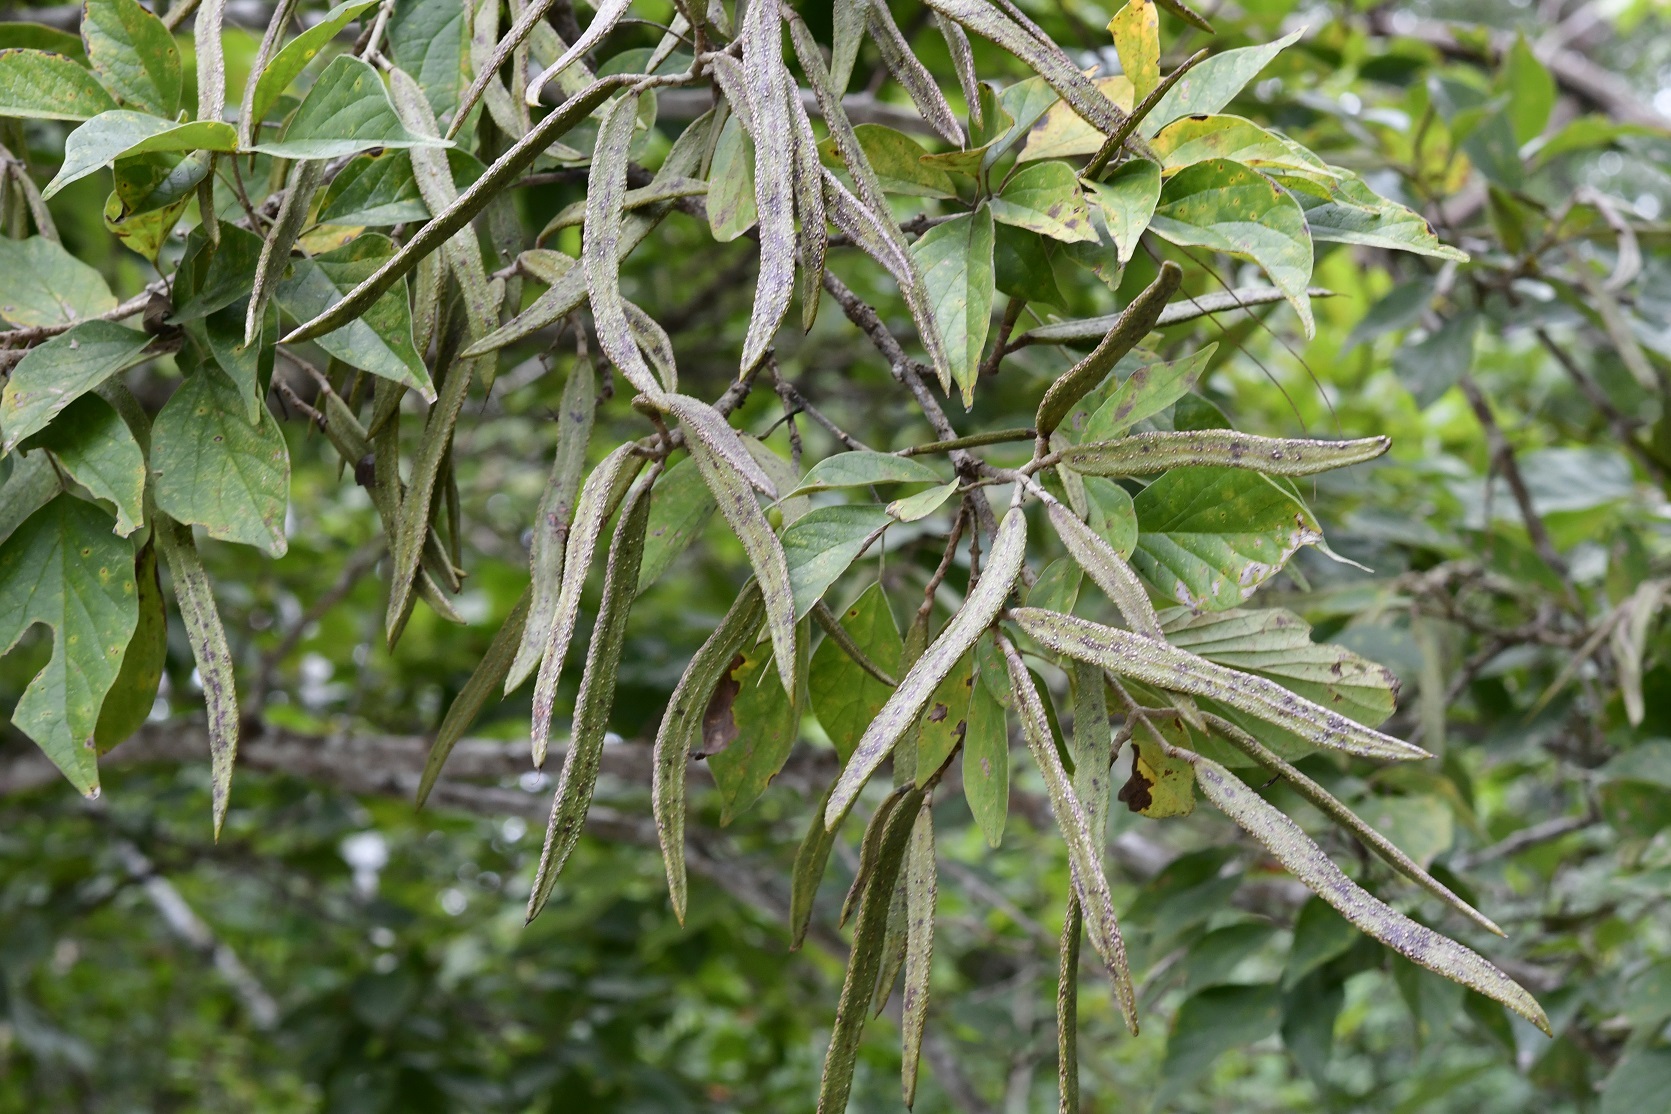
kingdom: Plantae
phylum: Tracheophyta
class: Magnoliopsida
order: Lamiales
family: Bignoniaceae
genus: Fridericia
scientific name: Fridericia chica
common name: Cricketvine
